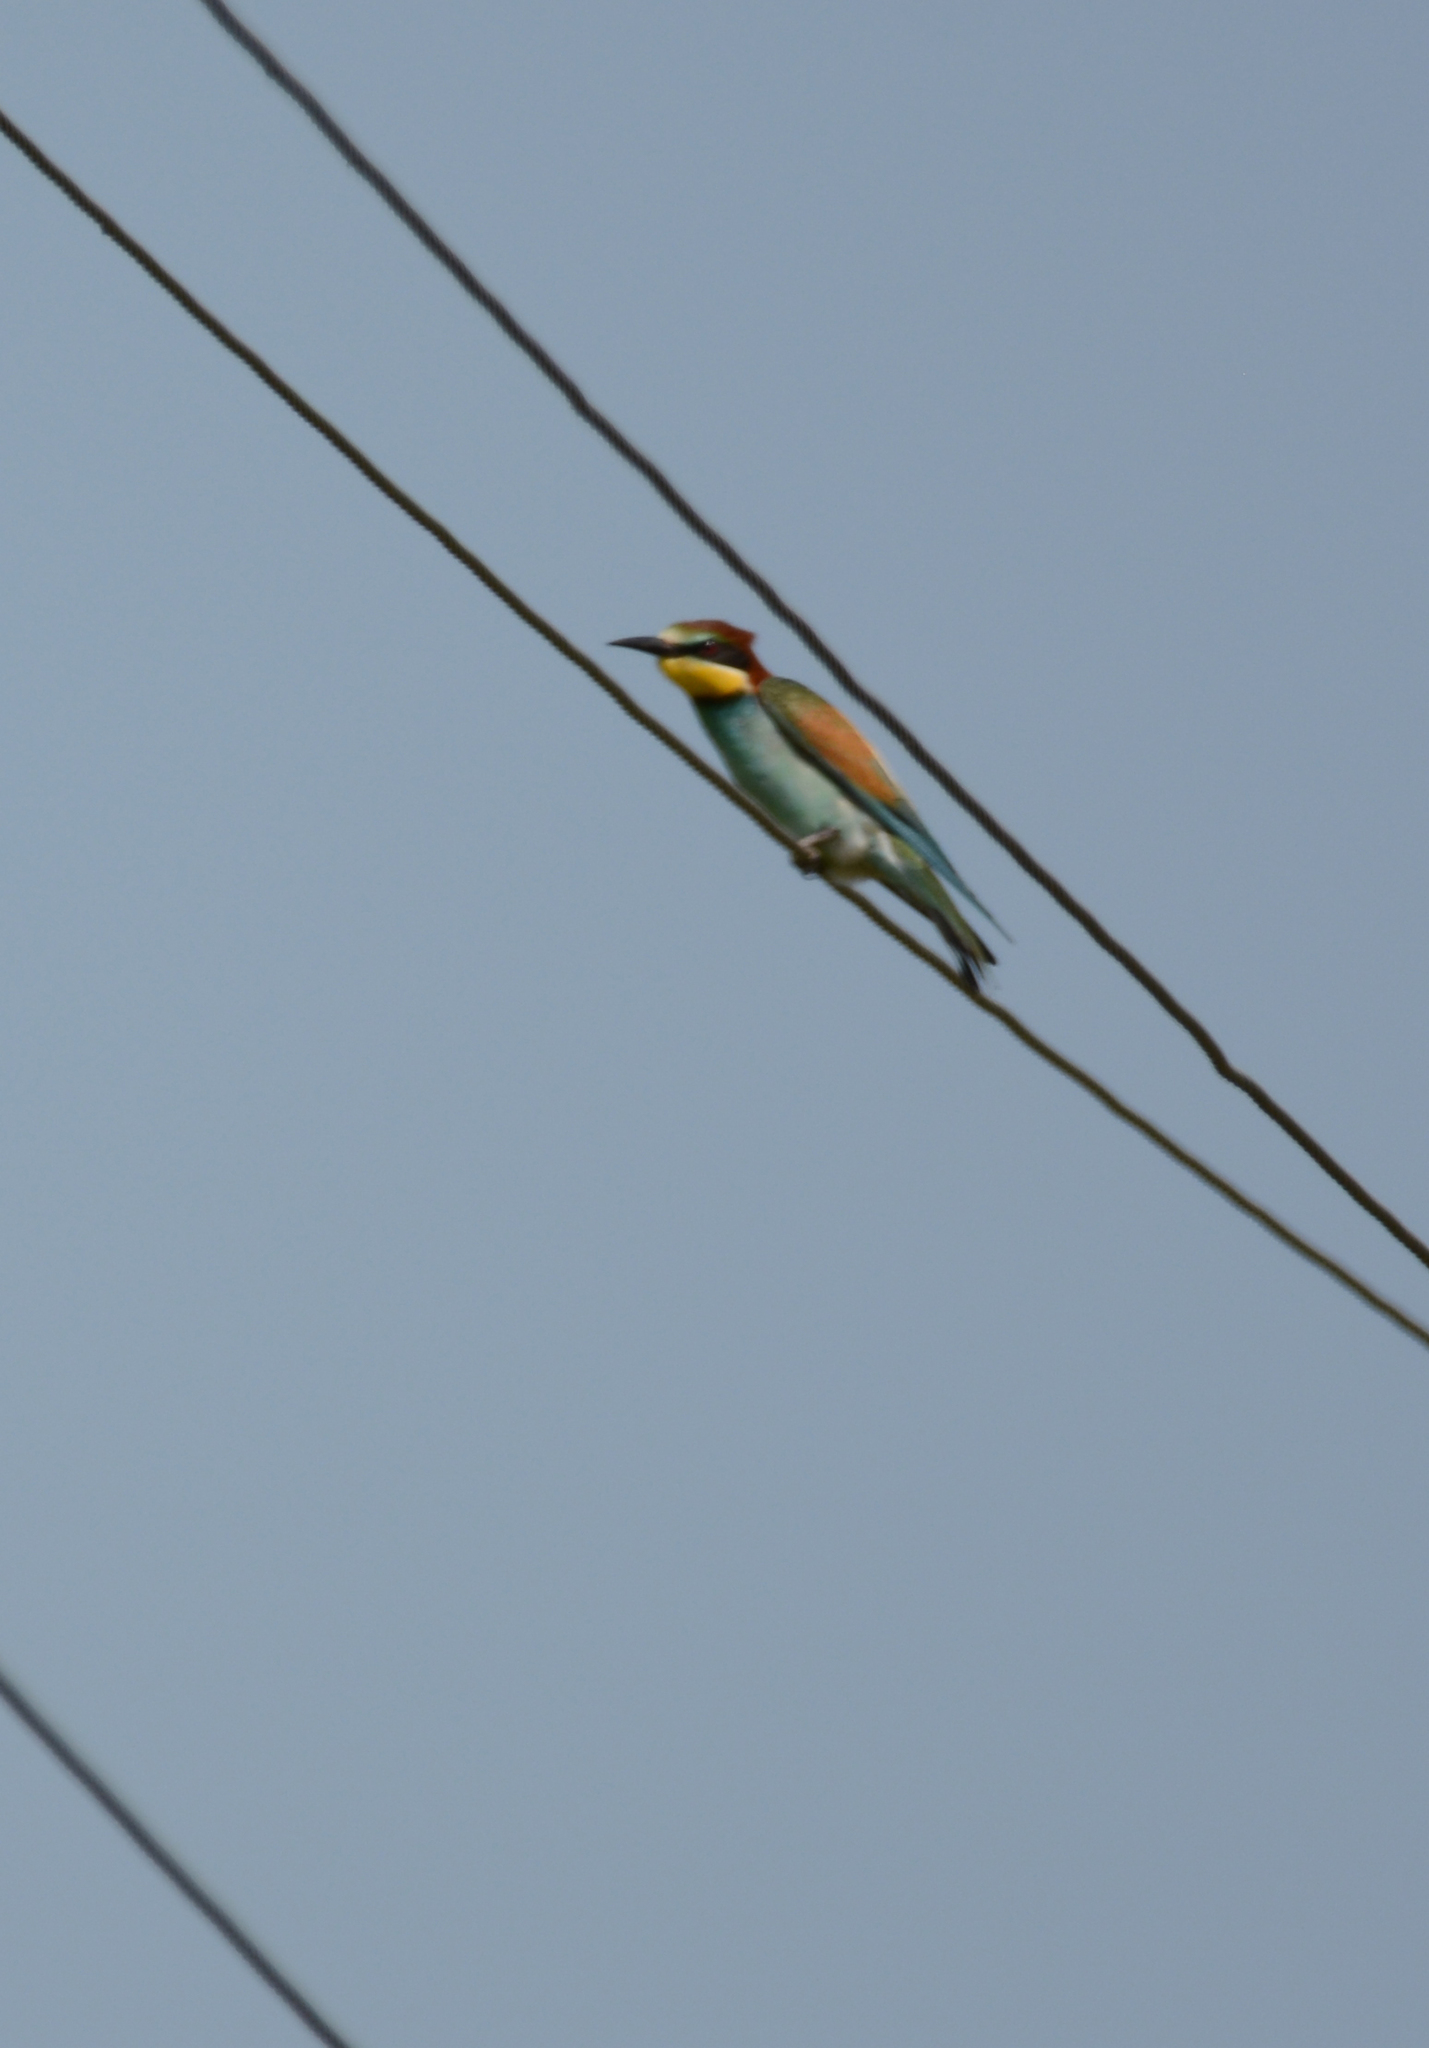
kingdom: Animalia
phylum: Chordata
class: Aves
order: Coraciiformes
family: Meropidae
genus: Merops
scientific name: Merops apiaster
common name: European bee-eater
